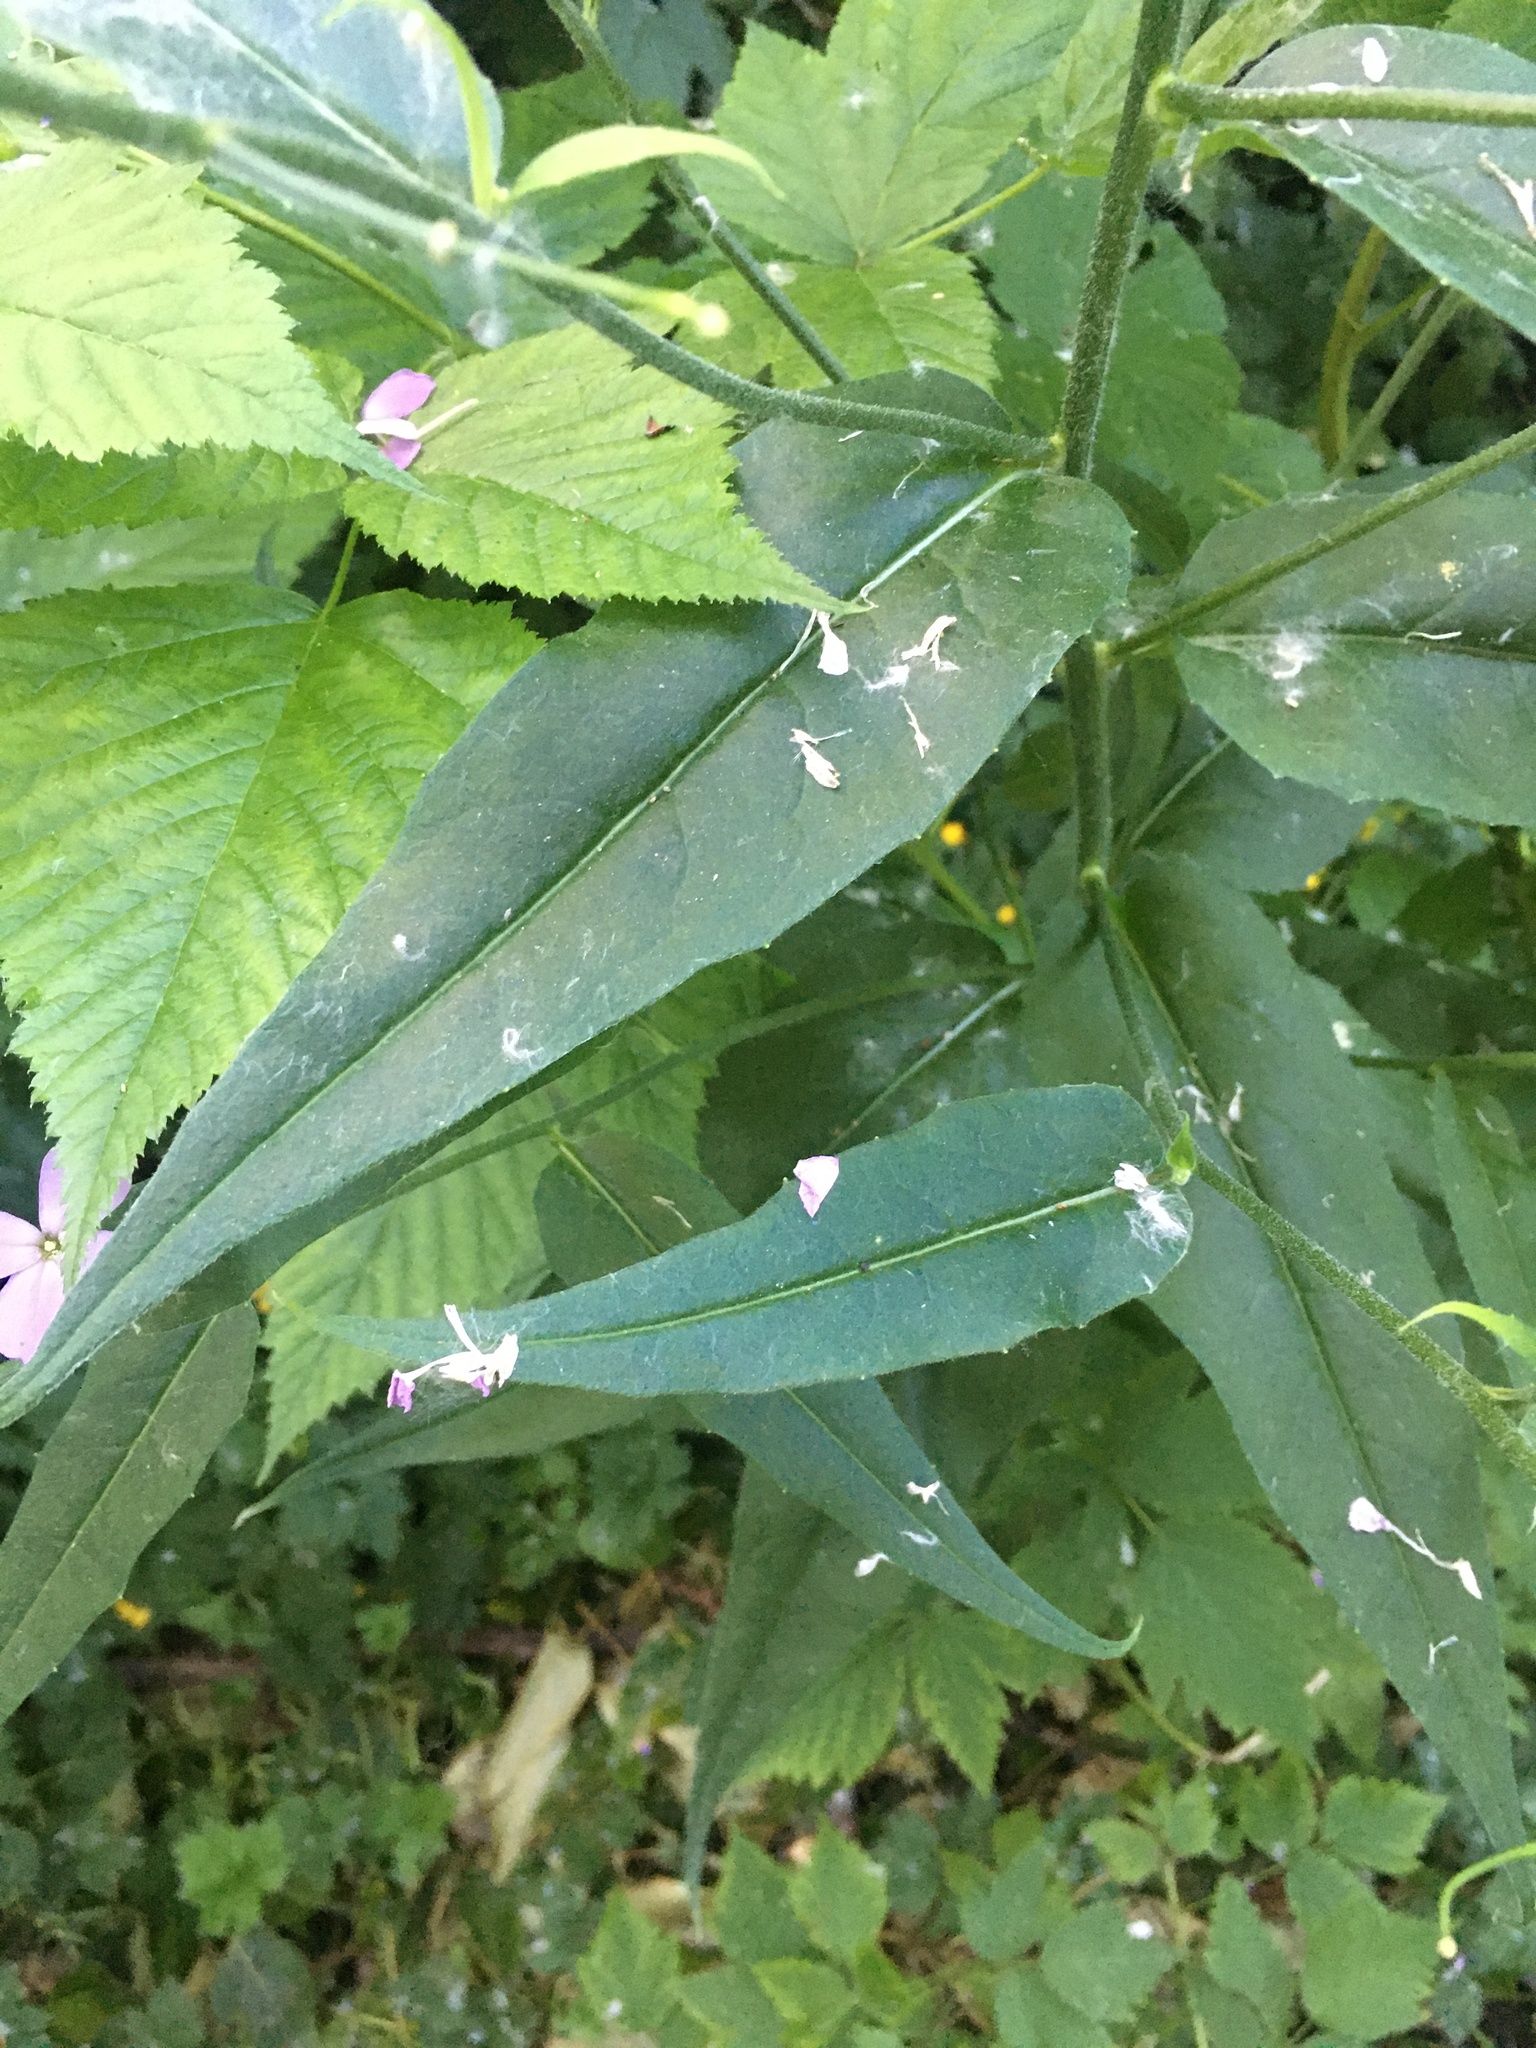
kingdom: Plantae
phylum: Tracheophyta
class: Magnoliopsida
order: Brassicales
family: Brassicaceae
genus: Hesperis
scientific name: Hesperis matronalis
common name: Dame's-violet
